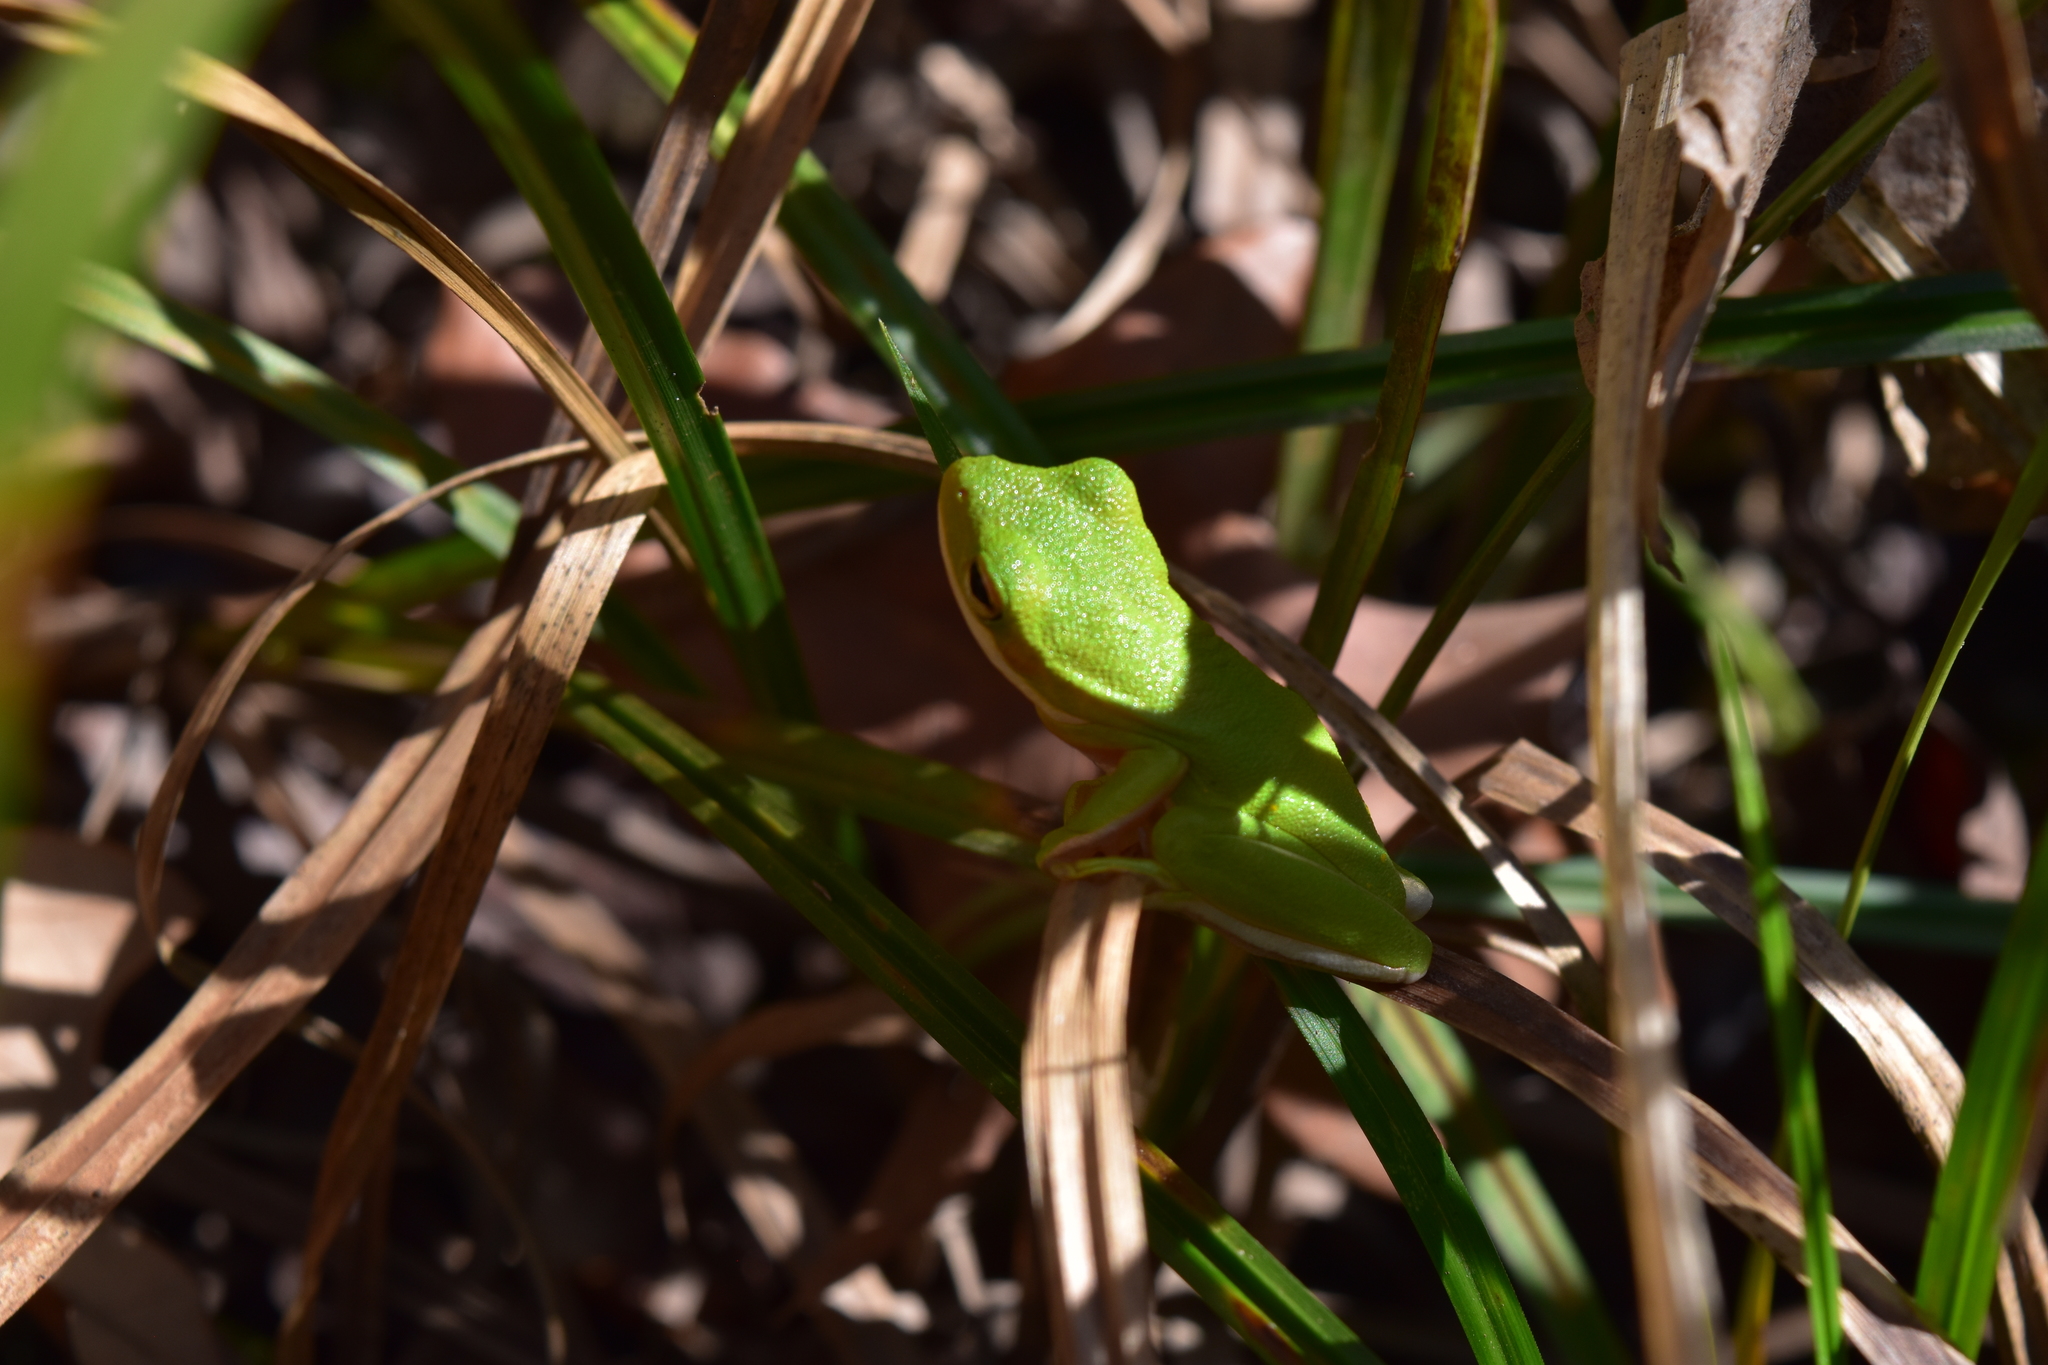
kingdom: Animalia
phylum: Chordata
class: Amphibia
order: Anura
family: Hylidae
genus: Dryophytes
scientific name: Dryophytes cinereus
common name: Green treefrog
